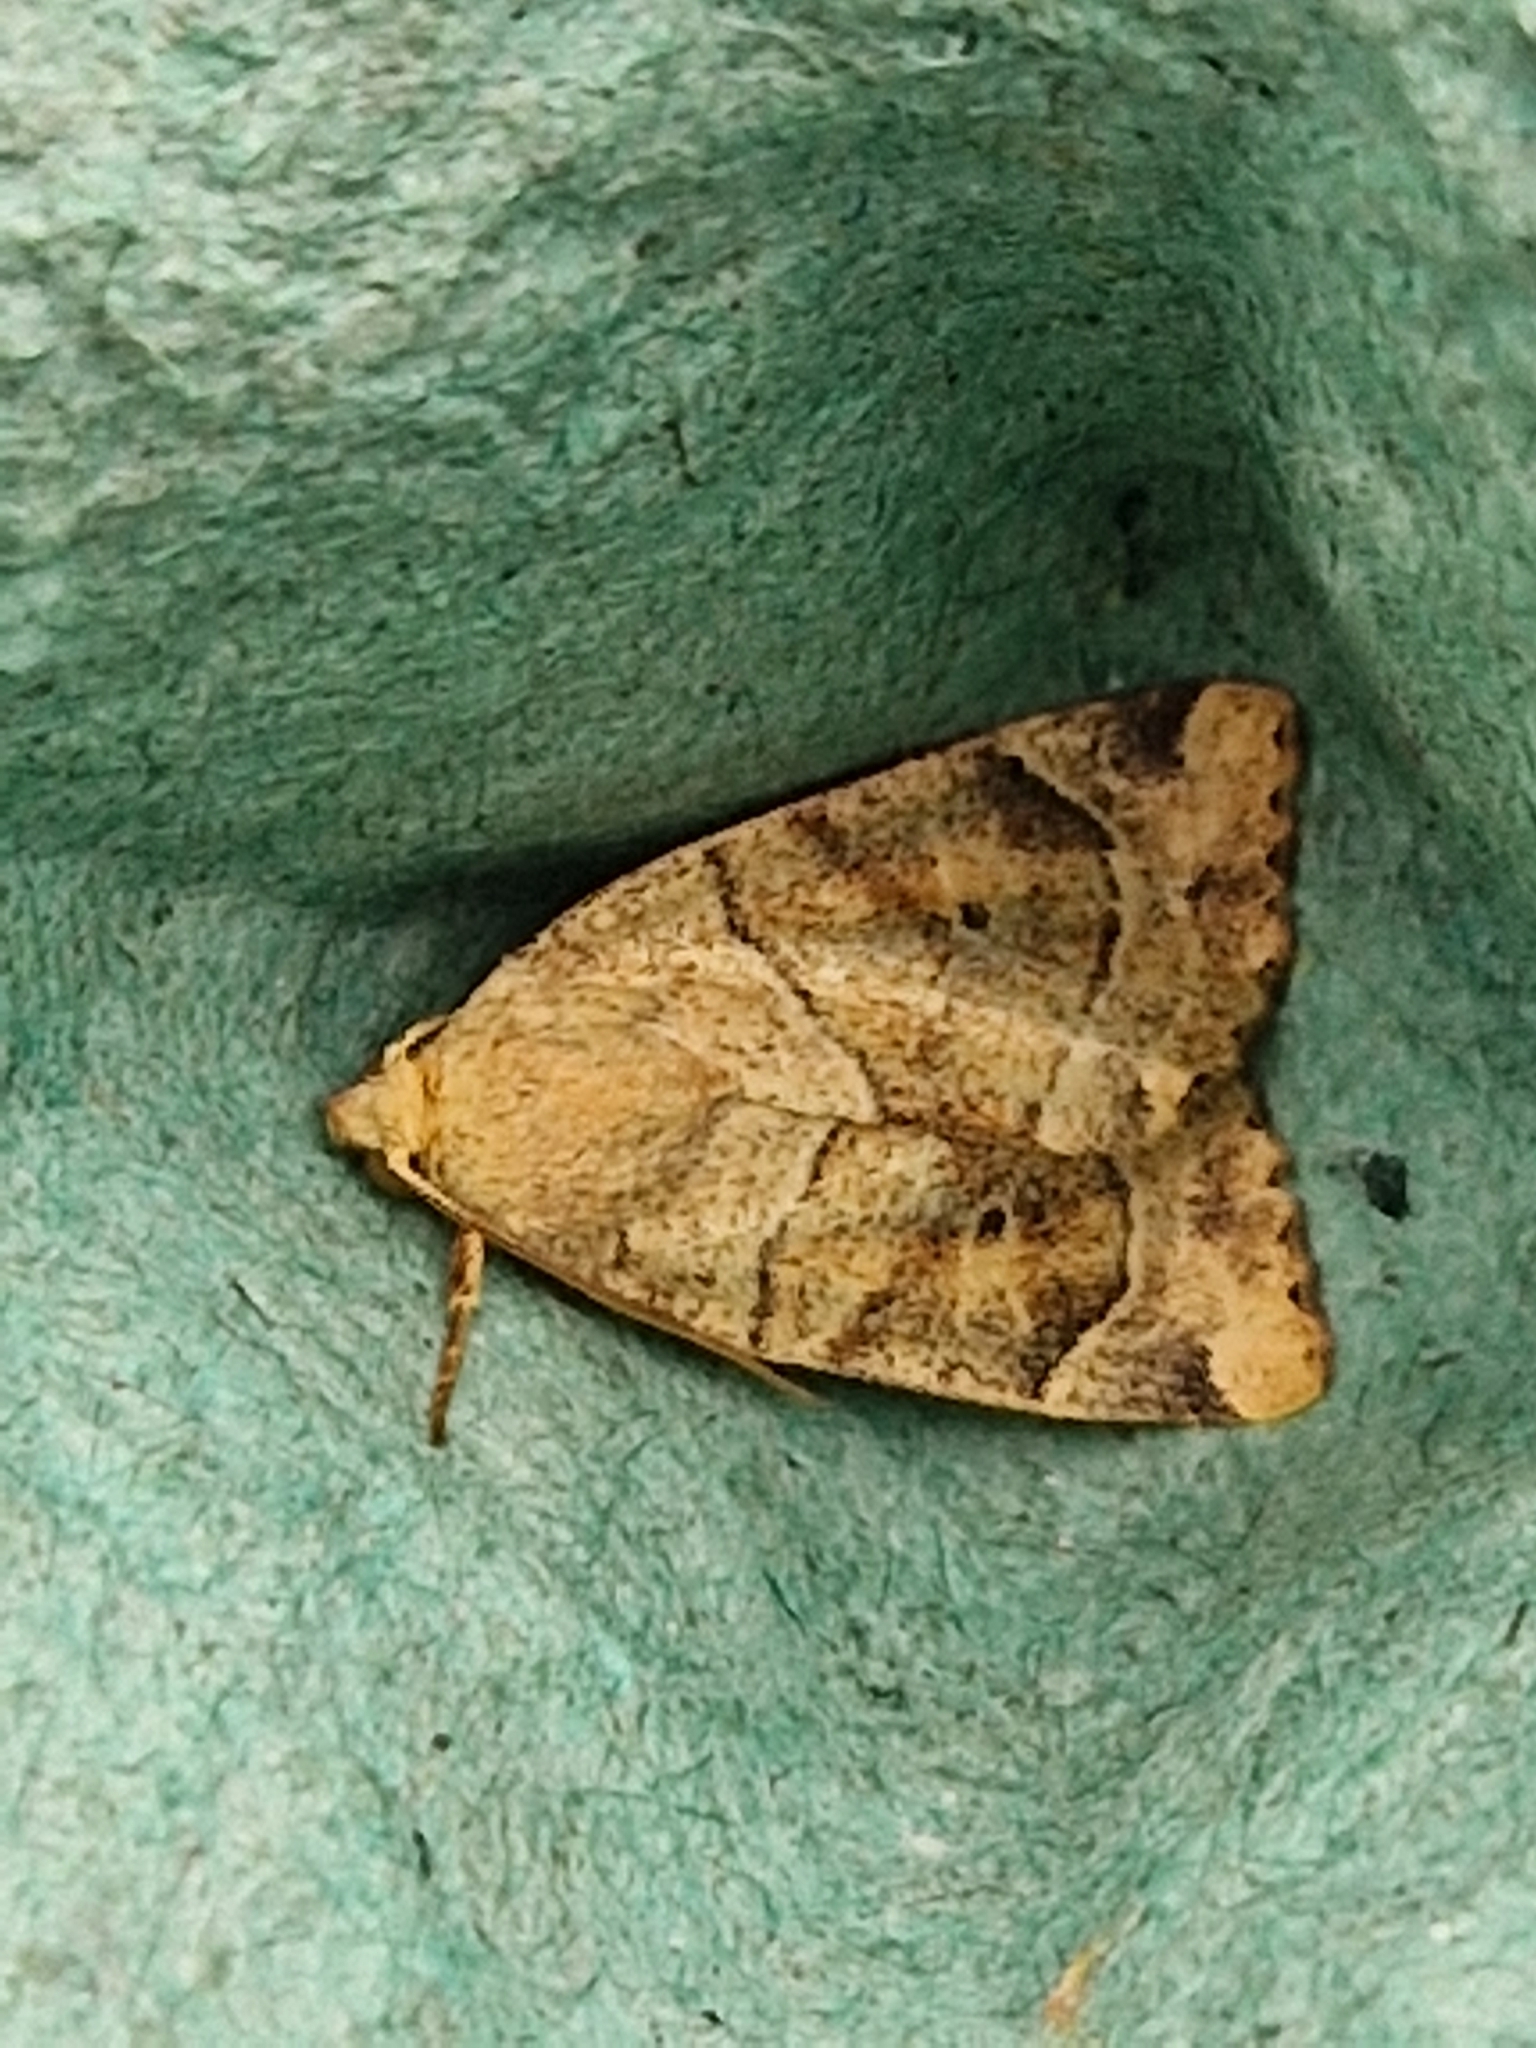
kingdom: Animalia
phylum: Arthropoda
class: Insecta
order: Lepidoptera
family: Noctuidae
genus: Cosmia
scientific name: Cosmia trapezina
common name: Dun-bar
